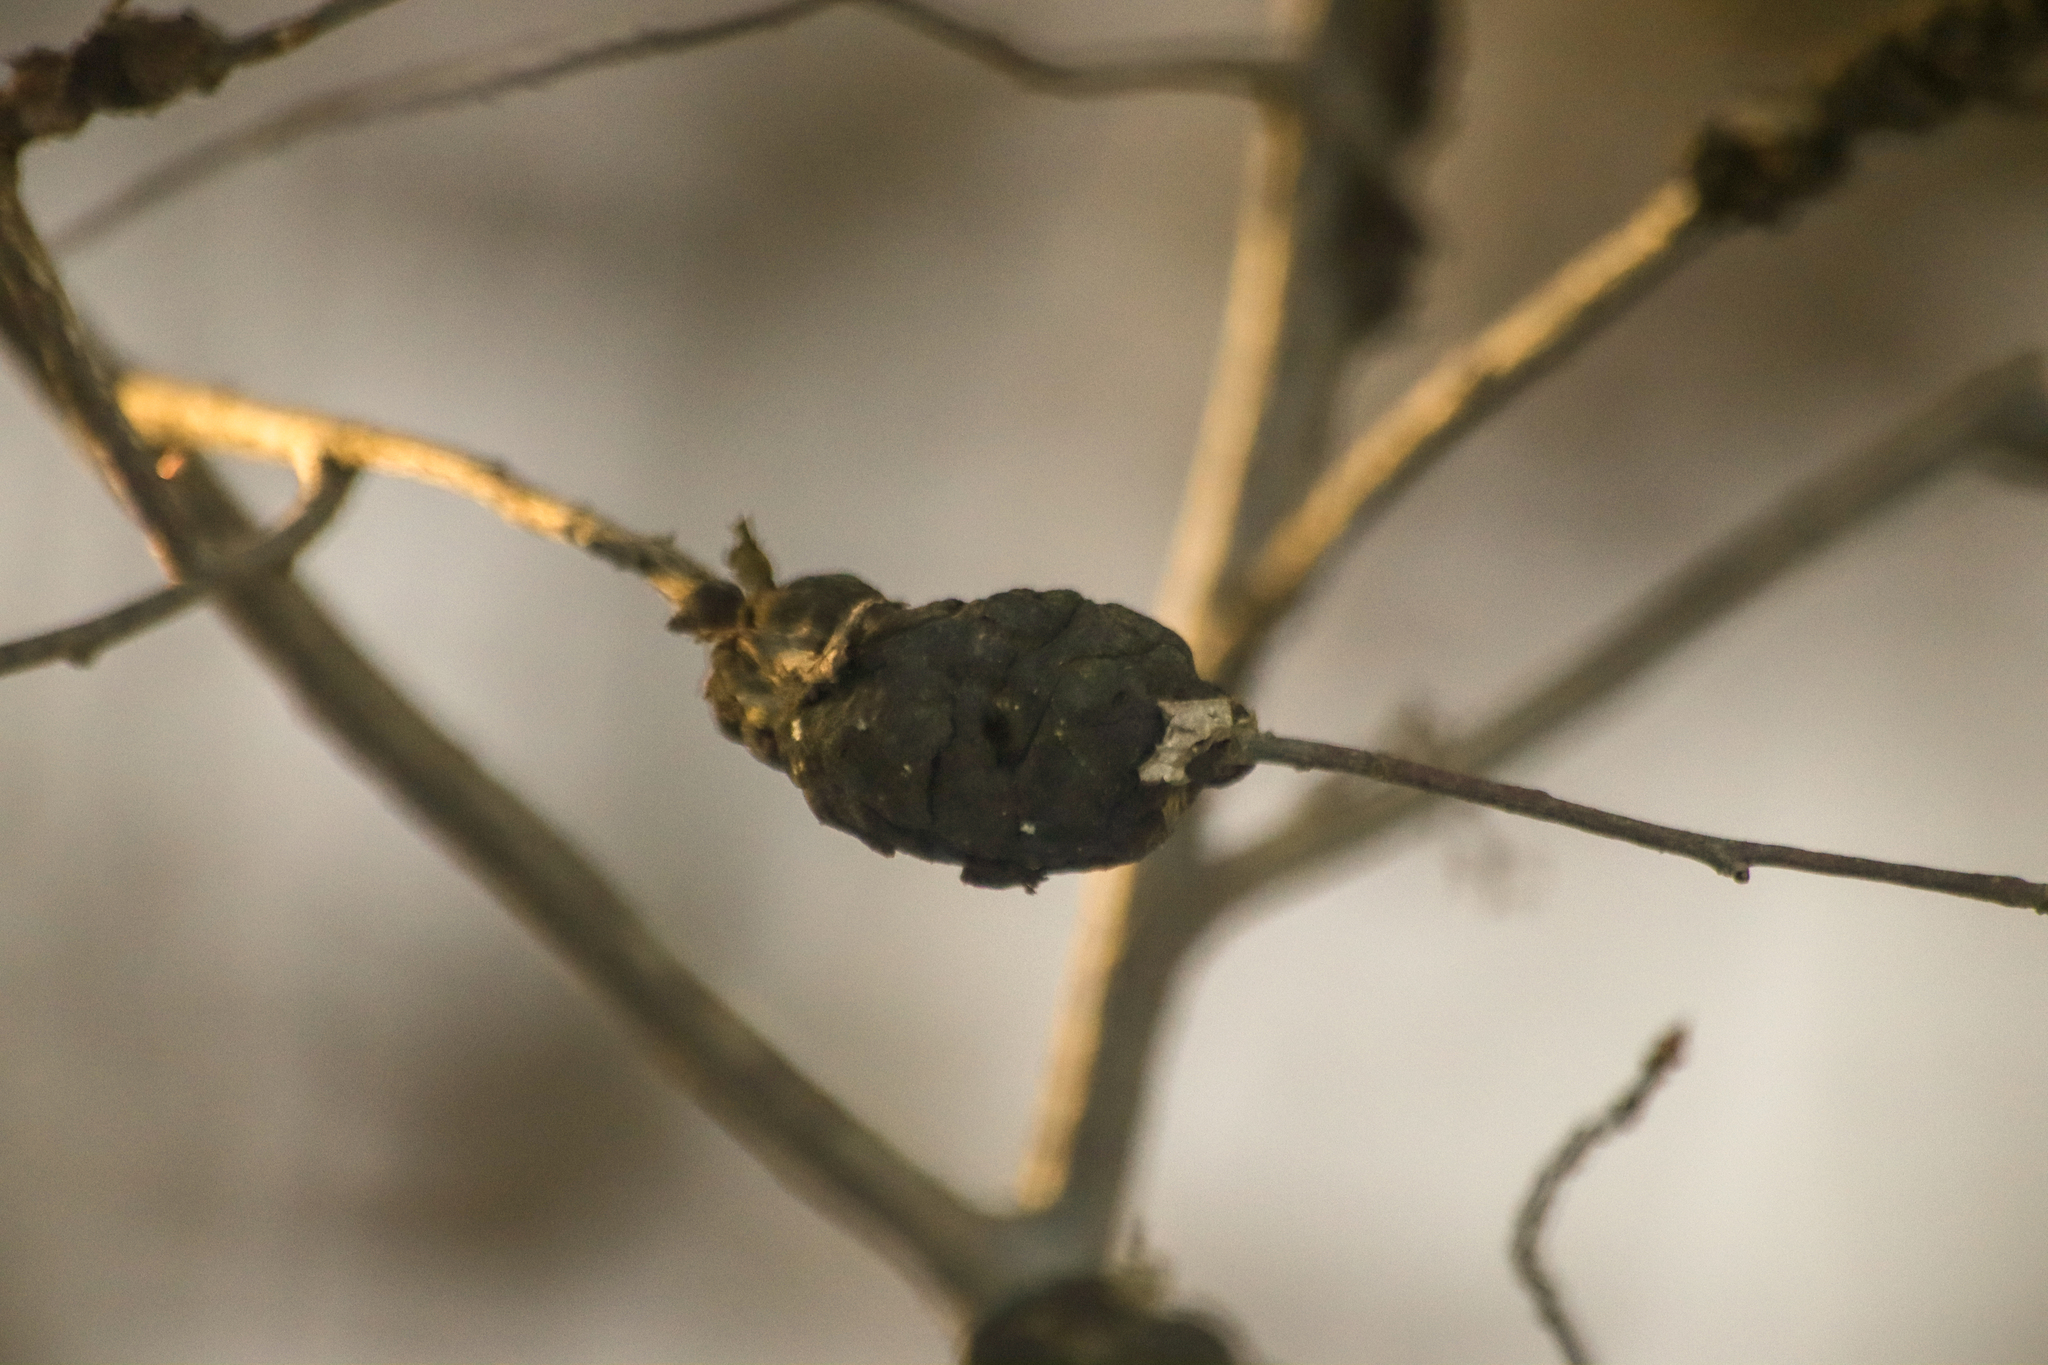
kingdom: Fungi
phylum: Ascomycota
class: Dothideomycetes
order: Venturiales
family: Venturiaceae
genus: Apiosporina
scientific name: Apiosporina morbosa
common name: Black knot
